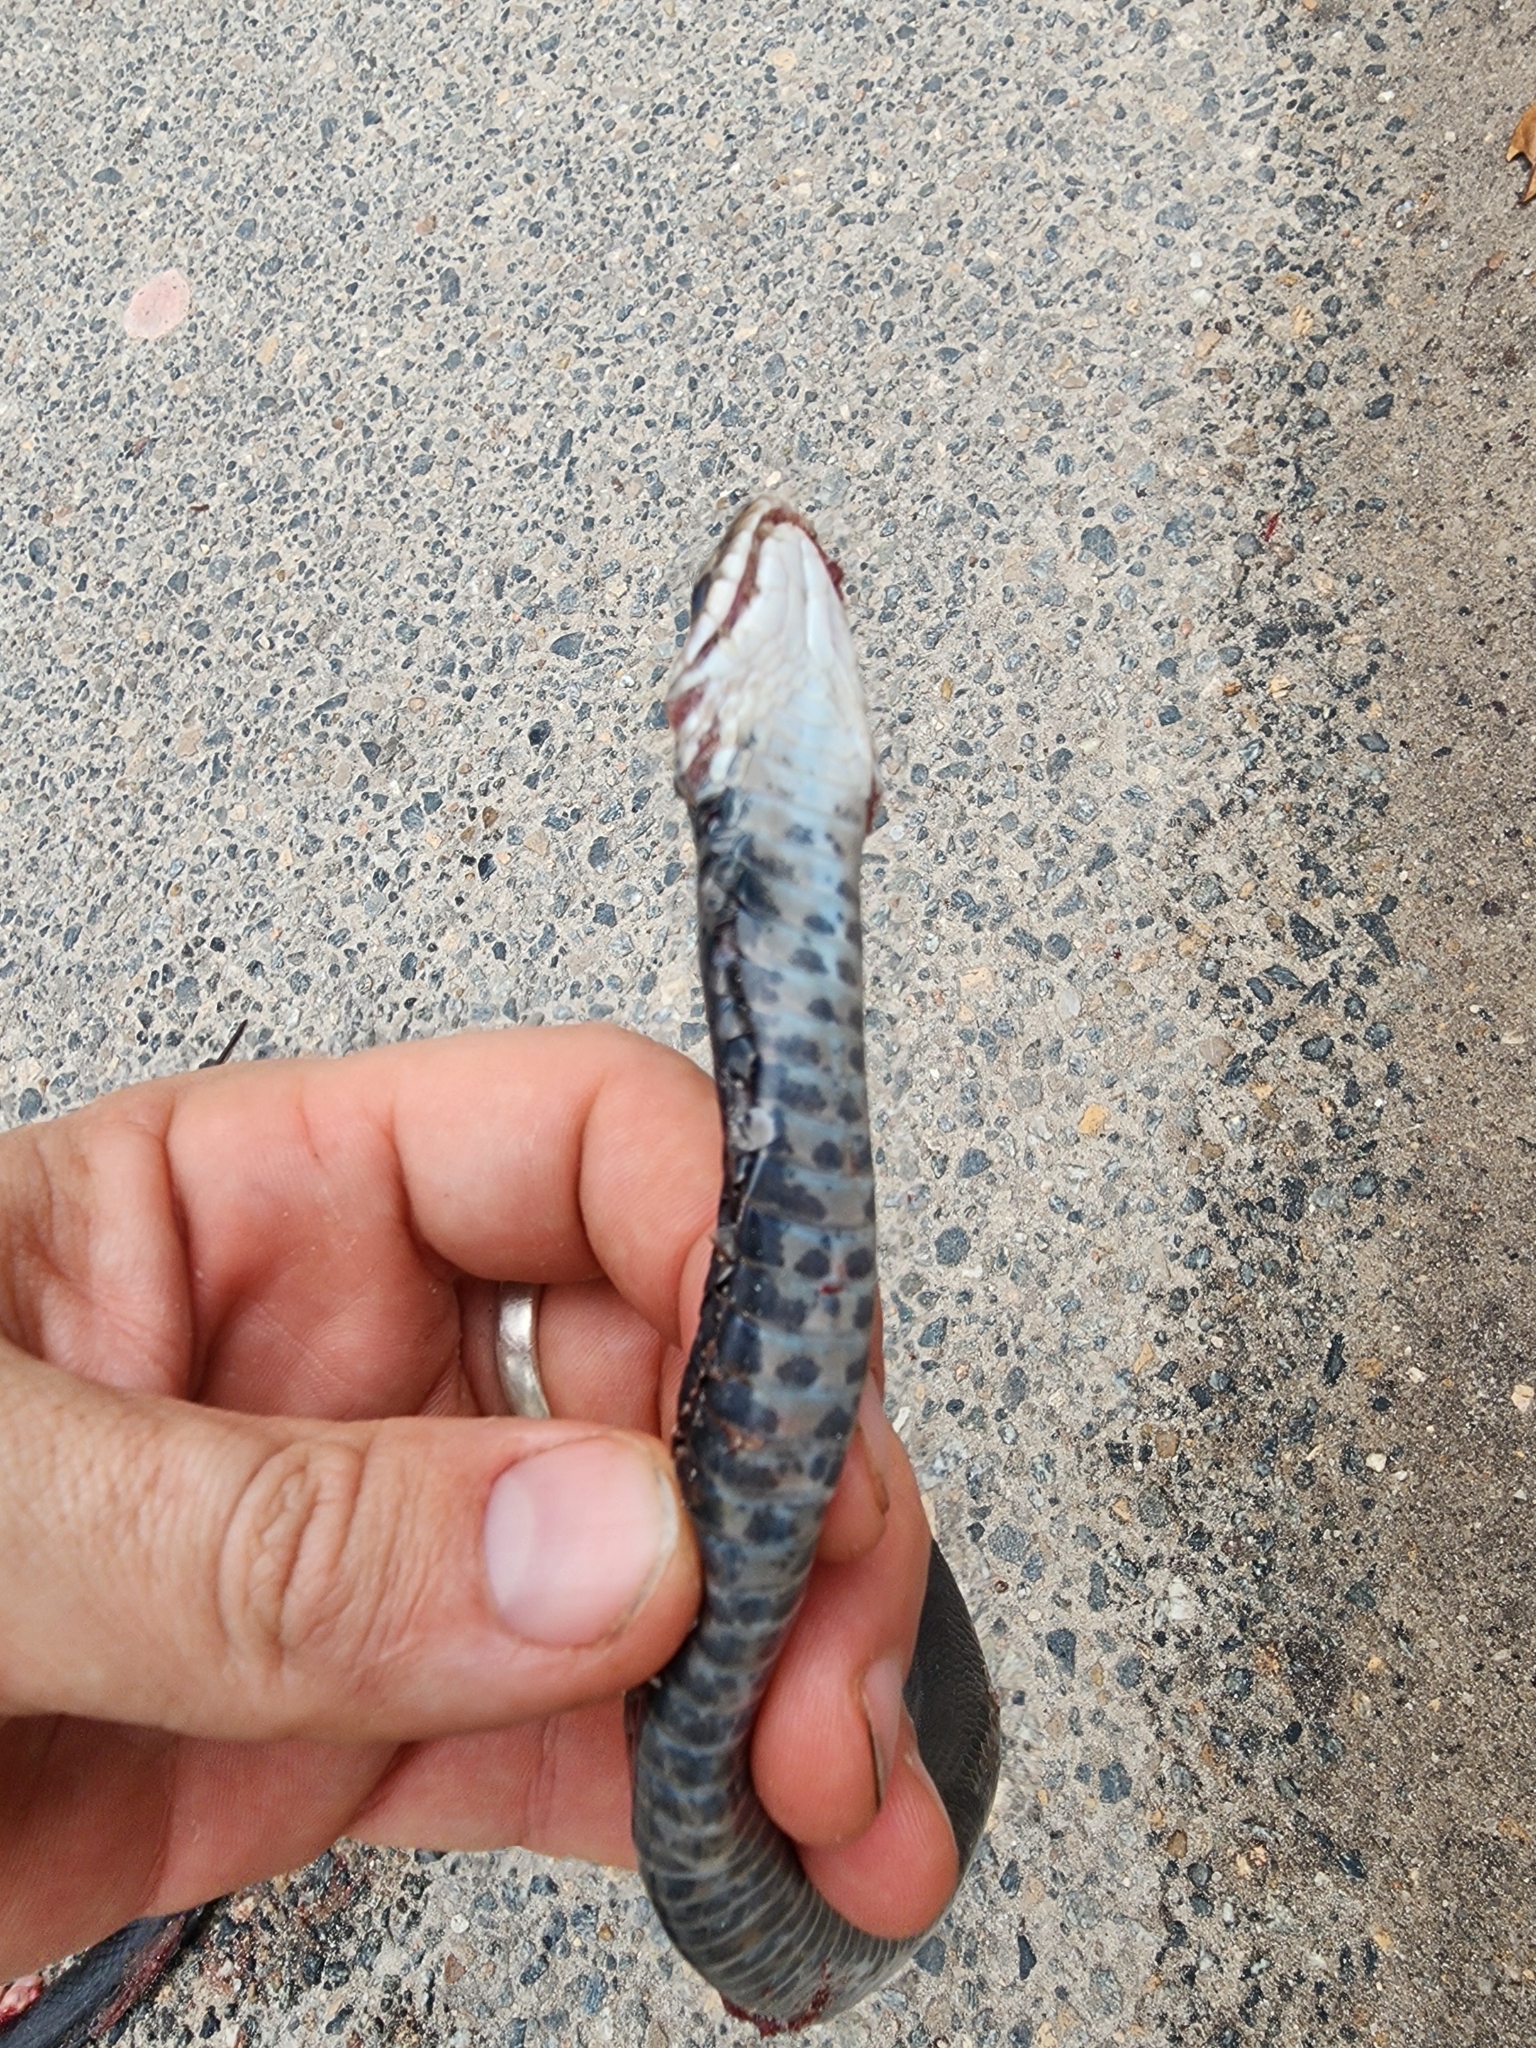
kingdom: Animalia
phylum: Chordata
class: Squamata
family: Colubridae
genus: Coluber
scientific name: Coluber constrictor
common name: Eastern racer
